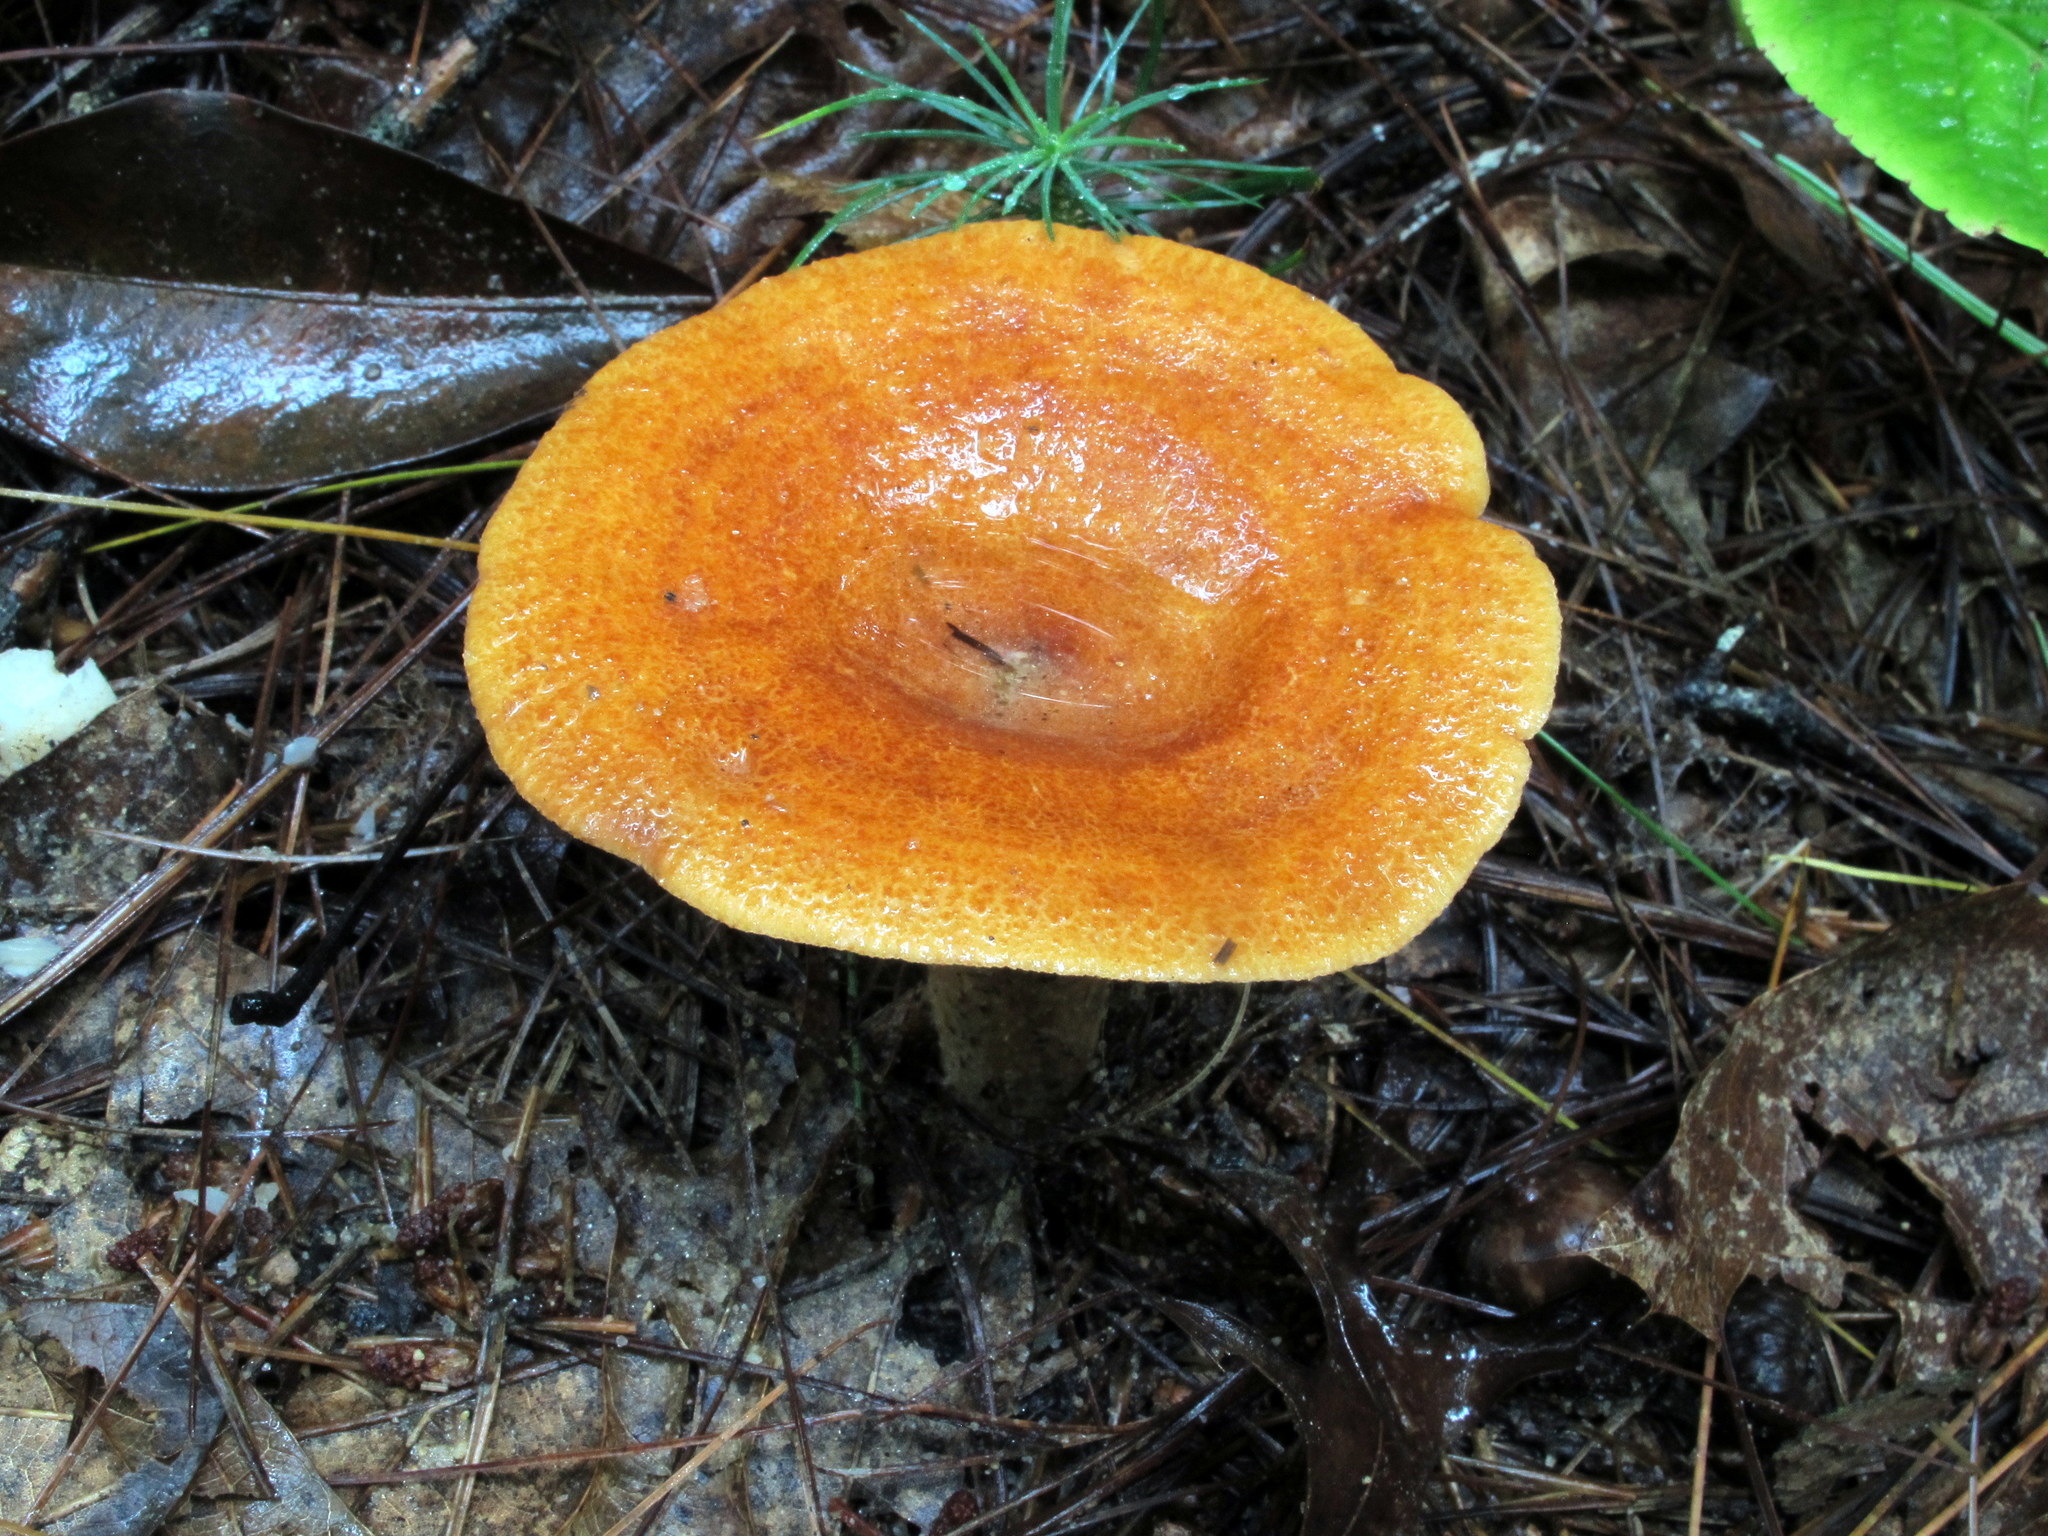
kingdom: Fungi
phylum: Basidiomycota
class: Agaricomycetes
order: Russulales
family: Russulaceae
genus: Lactarius
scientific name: Lactarius peckii
